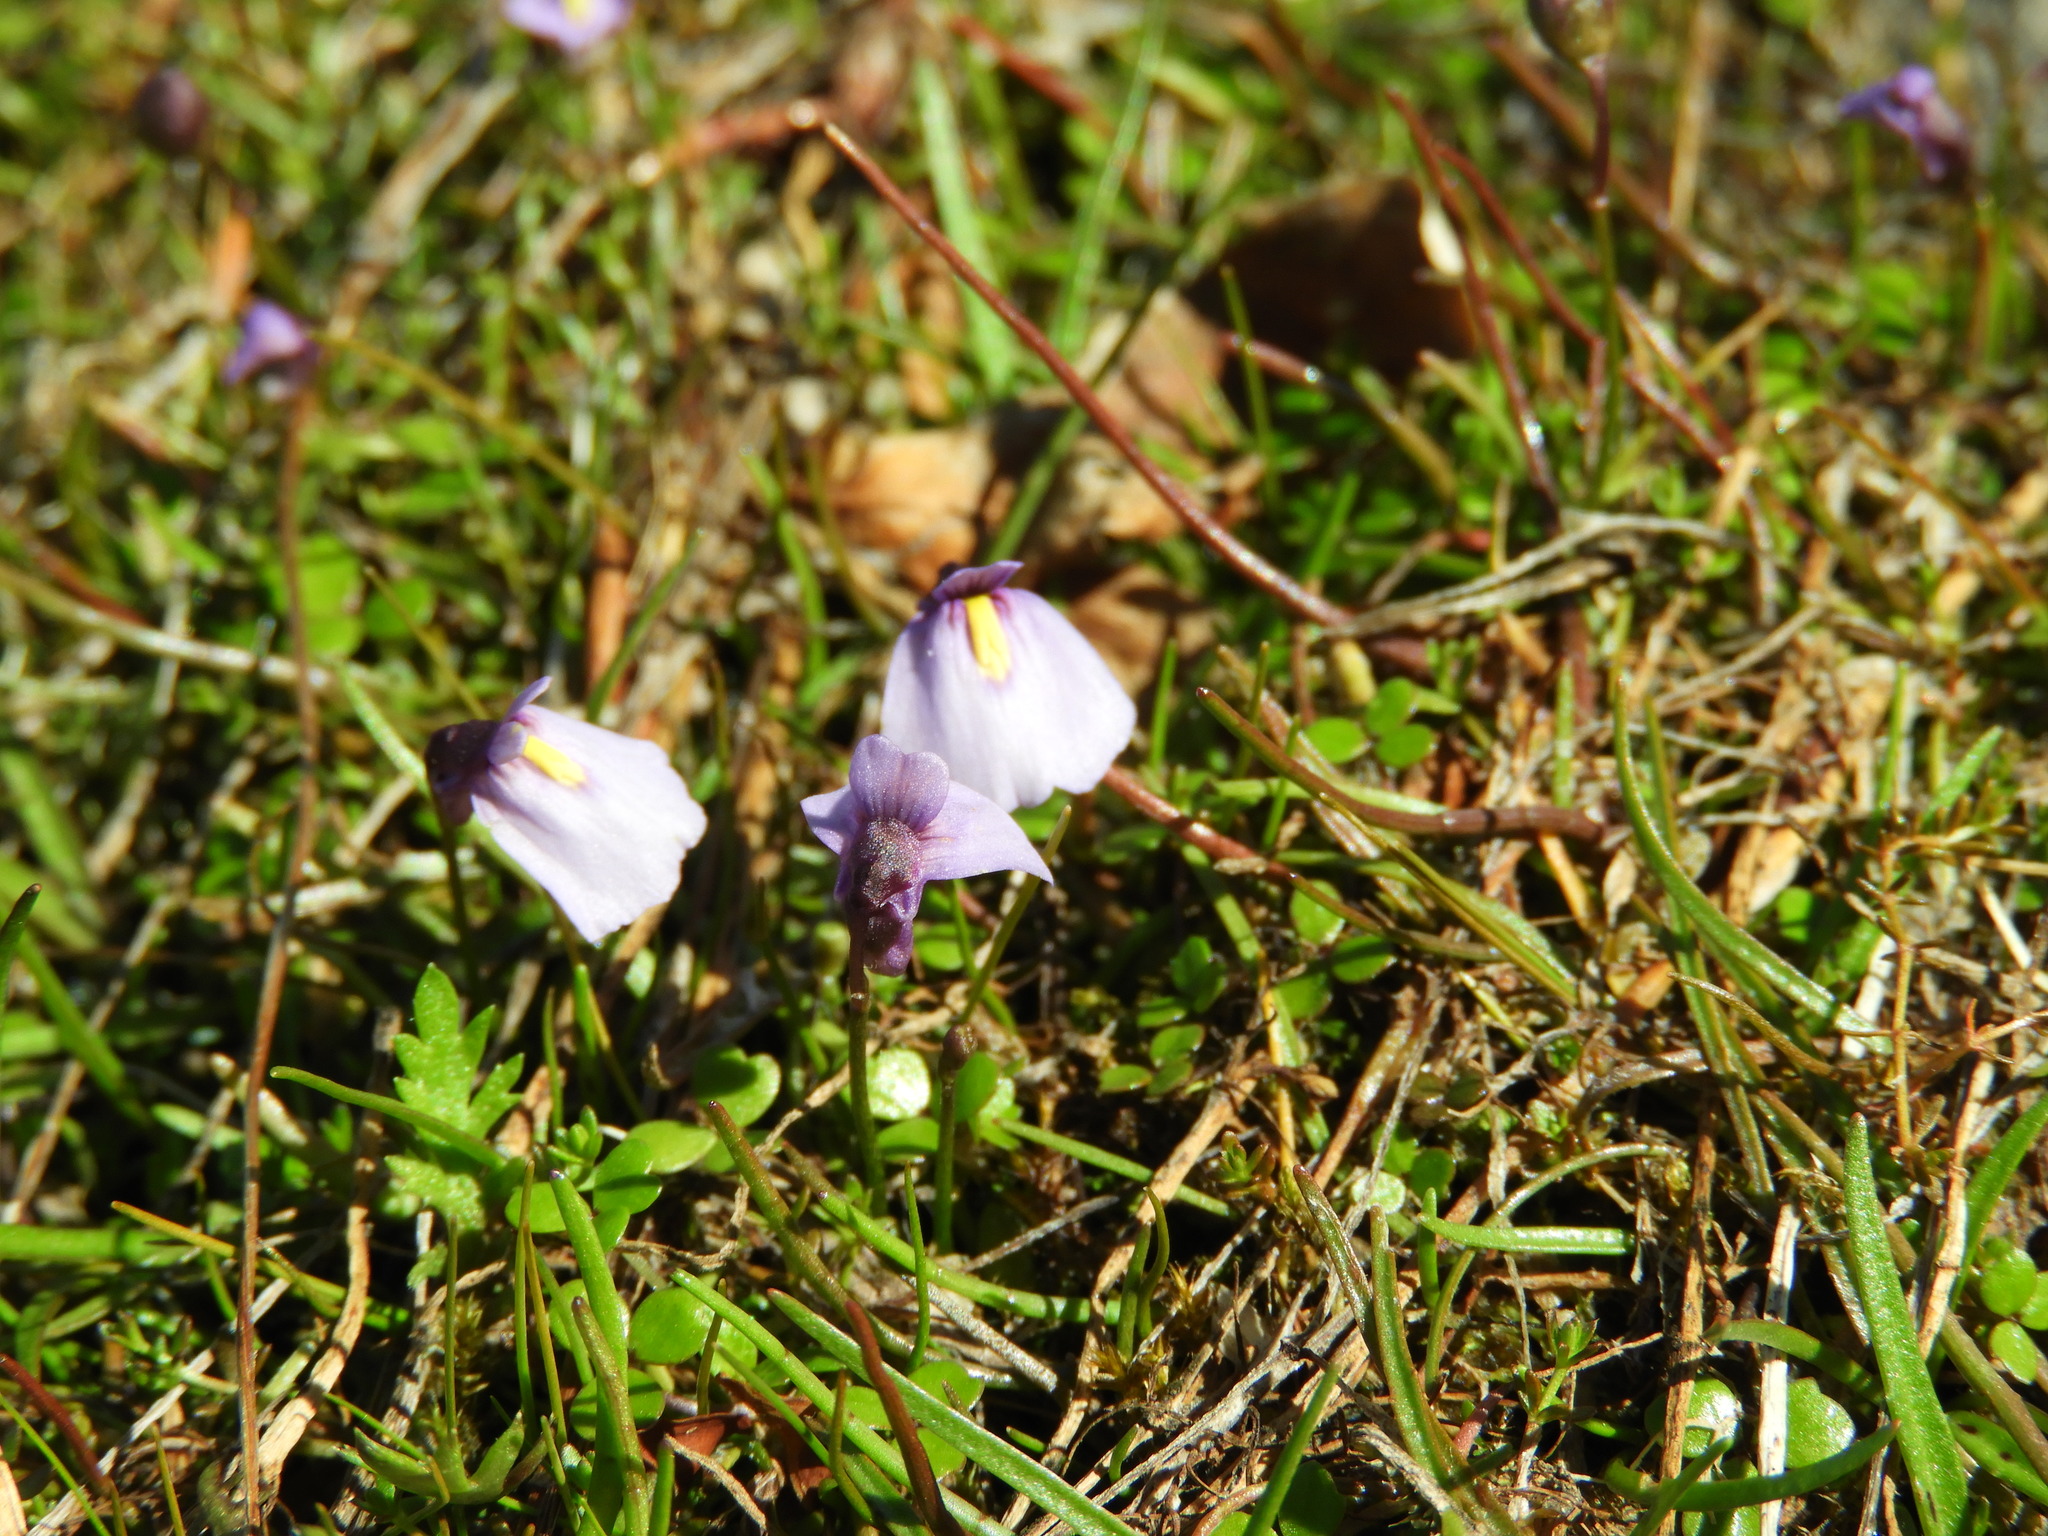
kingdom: Plantae
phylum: Tracheophyta
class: Magnoliopsida
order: Lamiales
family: Lentibulariaceae
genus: Utricularia
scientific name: Utricularia dichotoma
